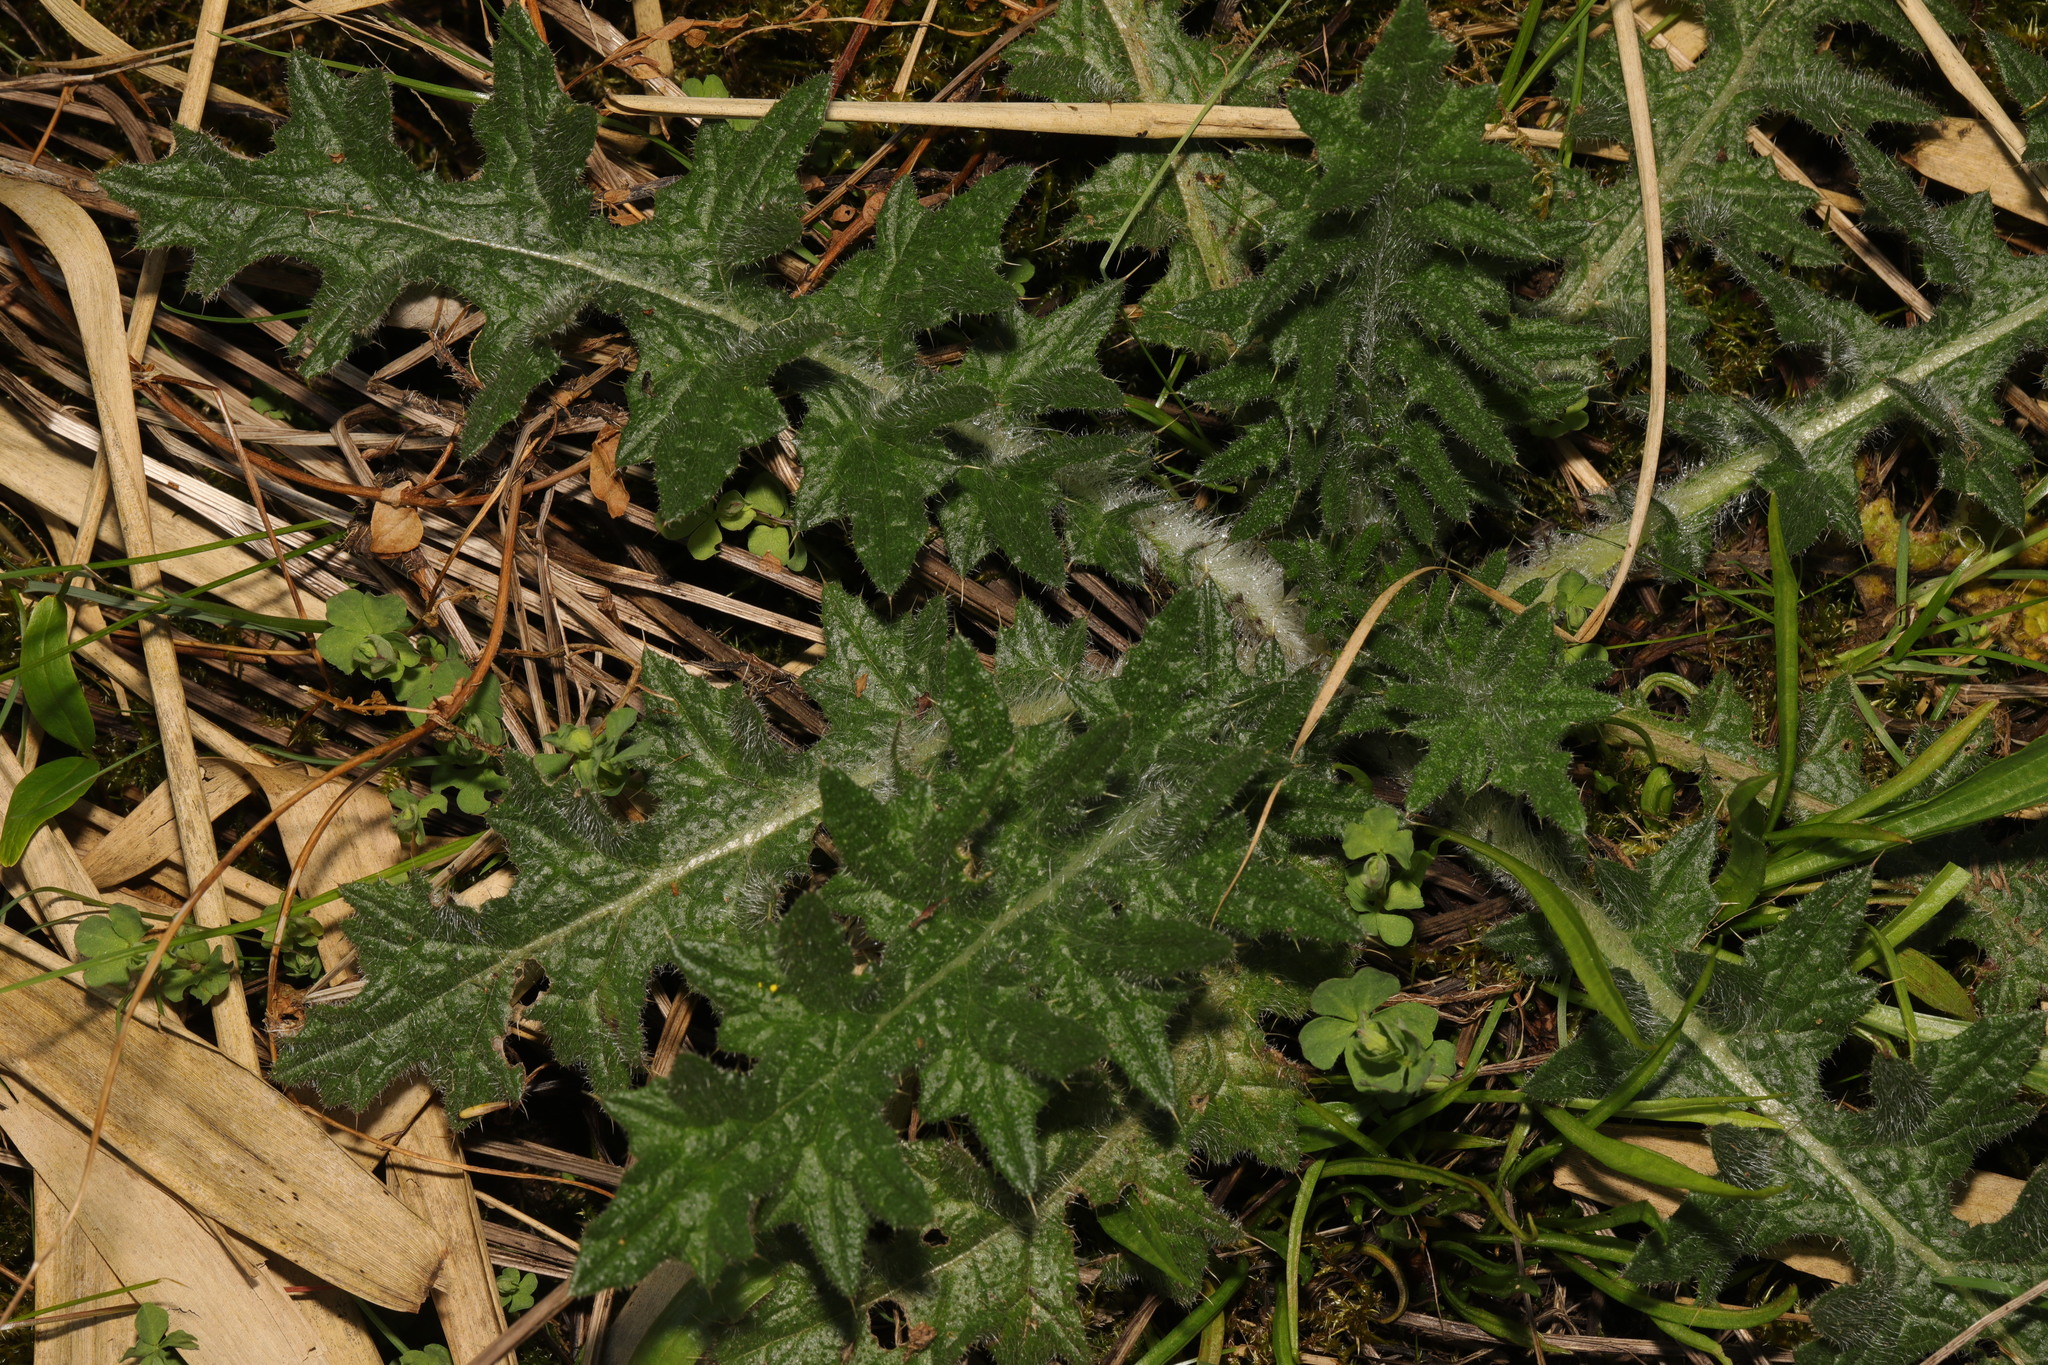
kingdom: Plantae
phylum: Tracheophyta
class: Magnoliopsida
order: Asterales
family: Asteraceae
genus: Cirsium
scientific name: Cirsium vulgare
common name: Bull thistle
